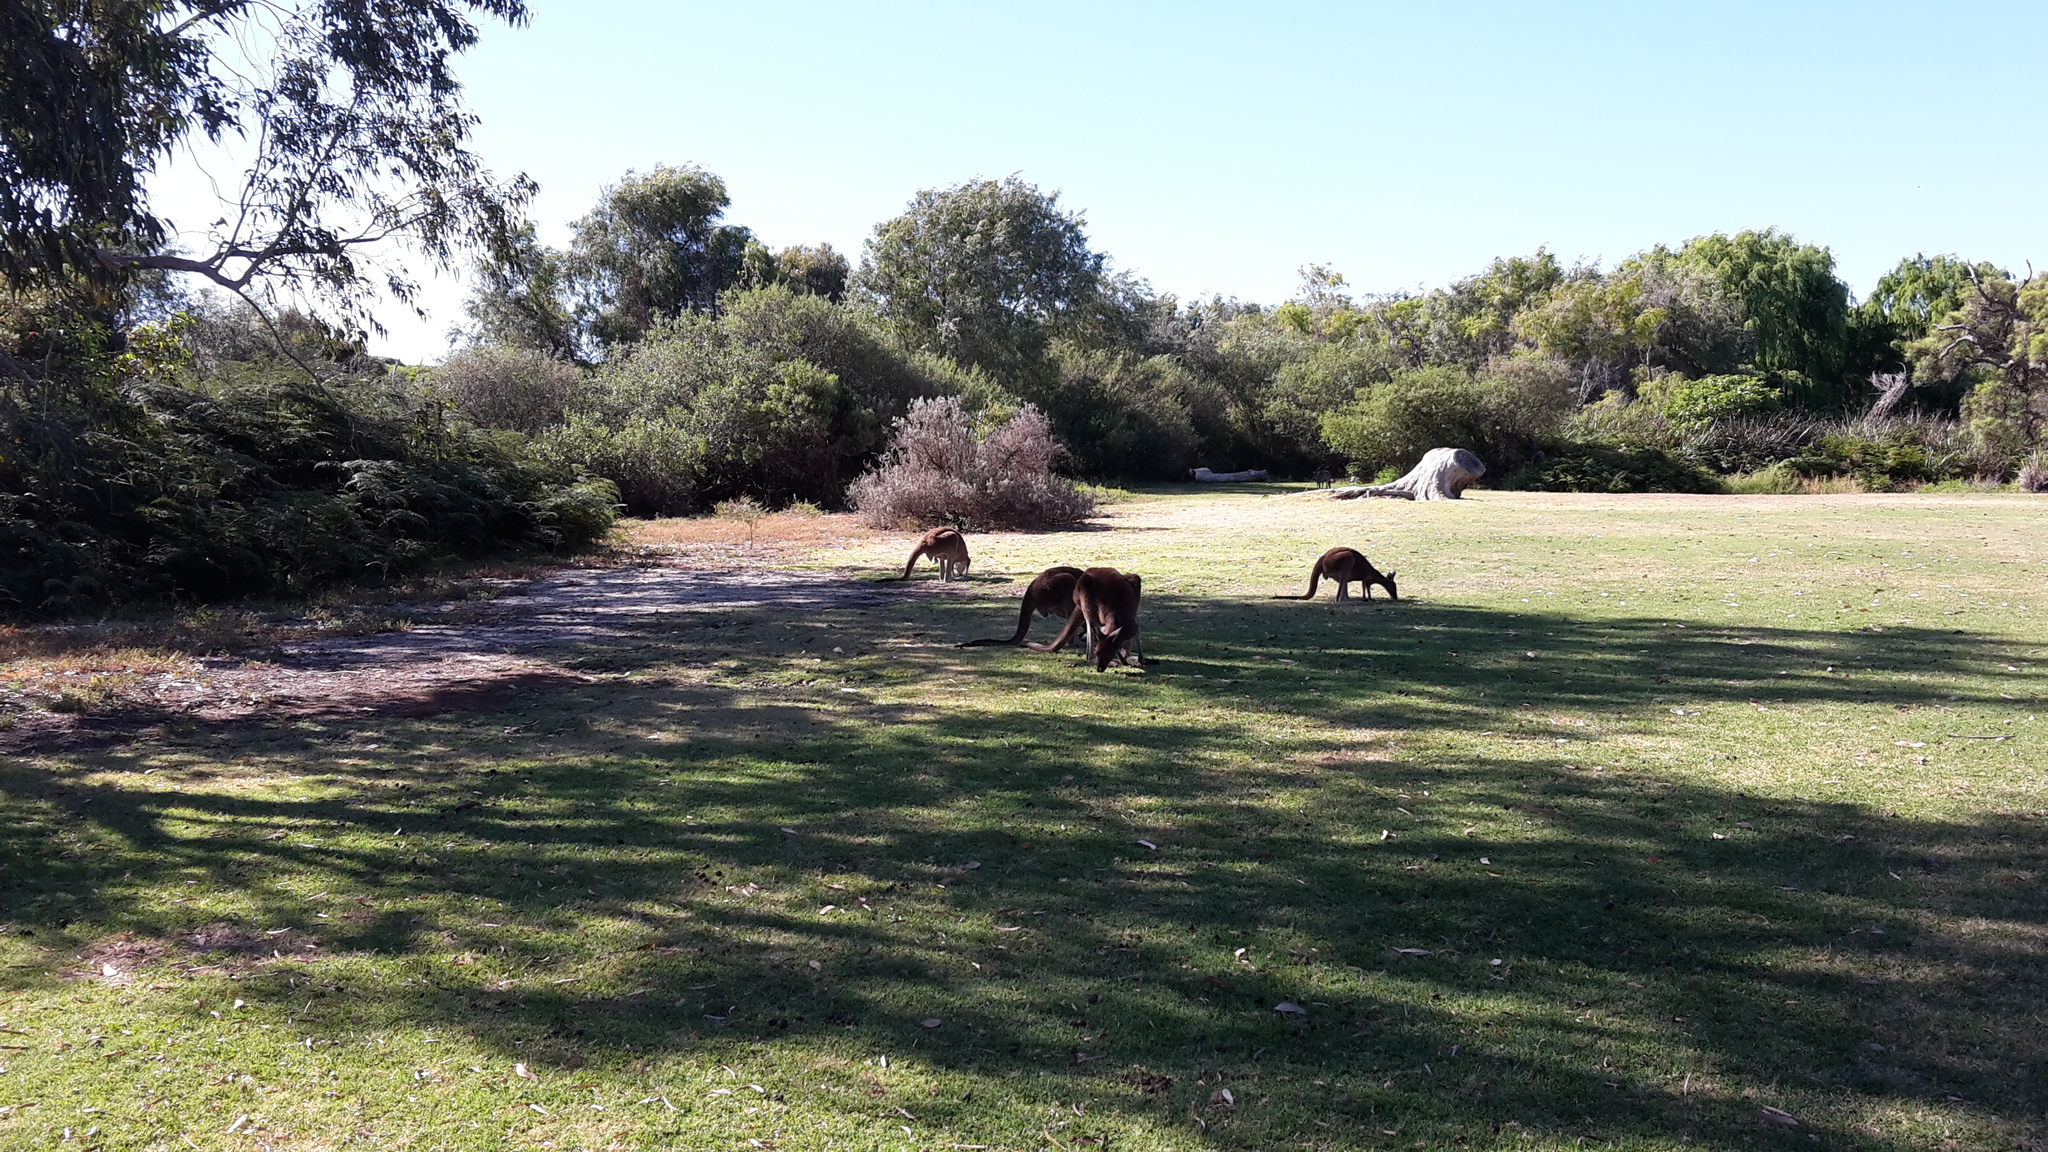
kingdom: Animalia
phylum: Chordata
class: Mammalia
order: Diprotodontia
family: Macropodidae
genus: Macropus
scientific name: Macropus fuliginosus
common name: Western grey kangaroo
